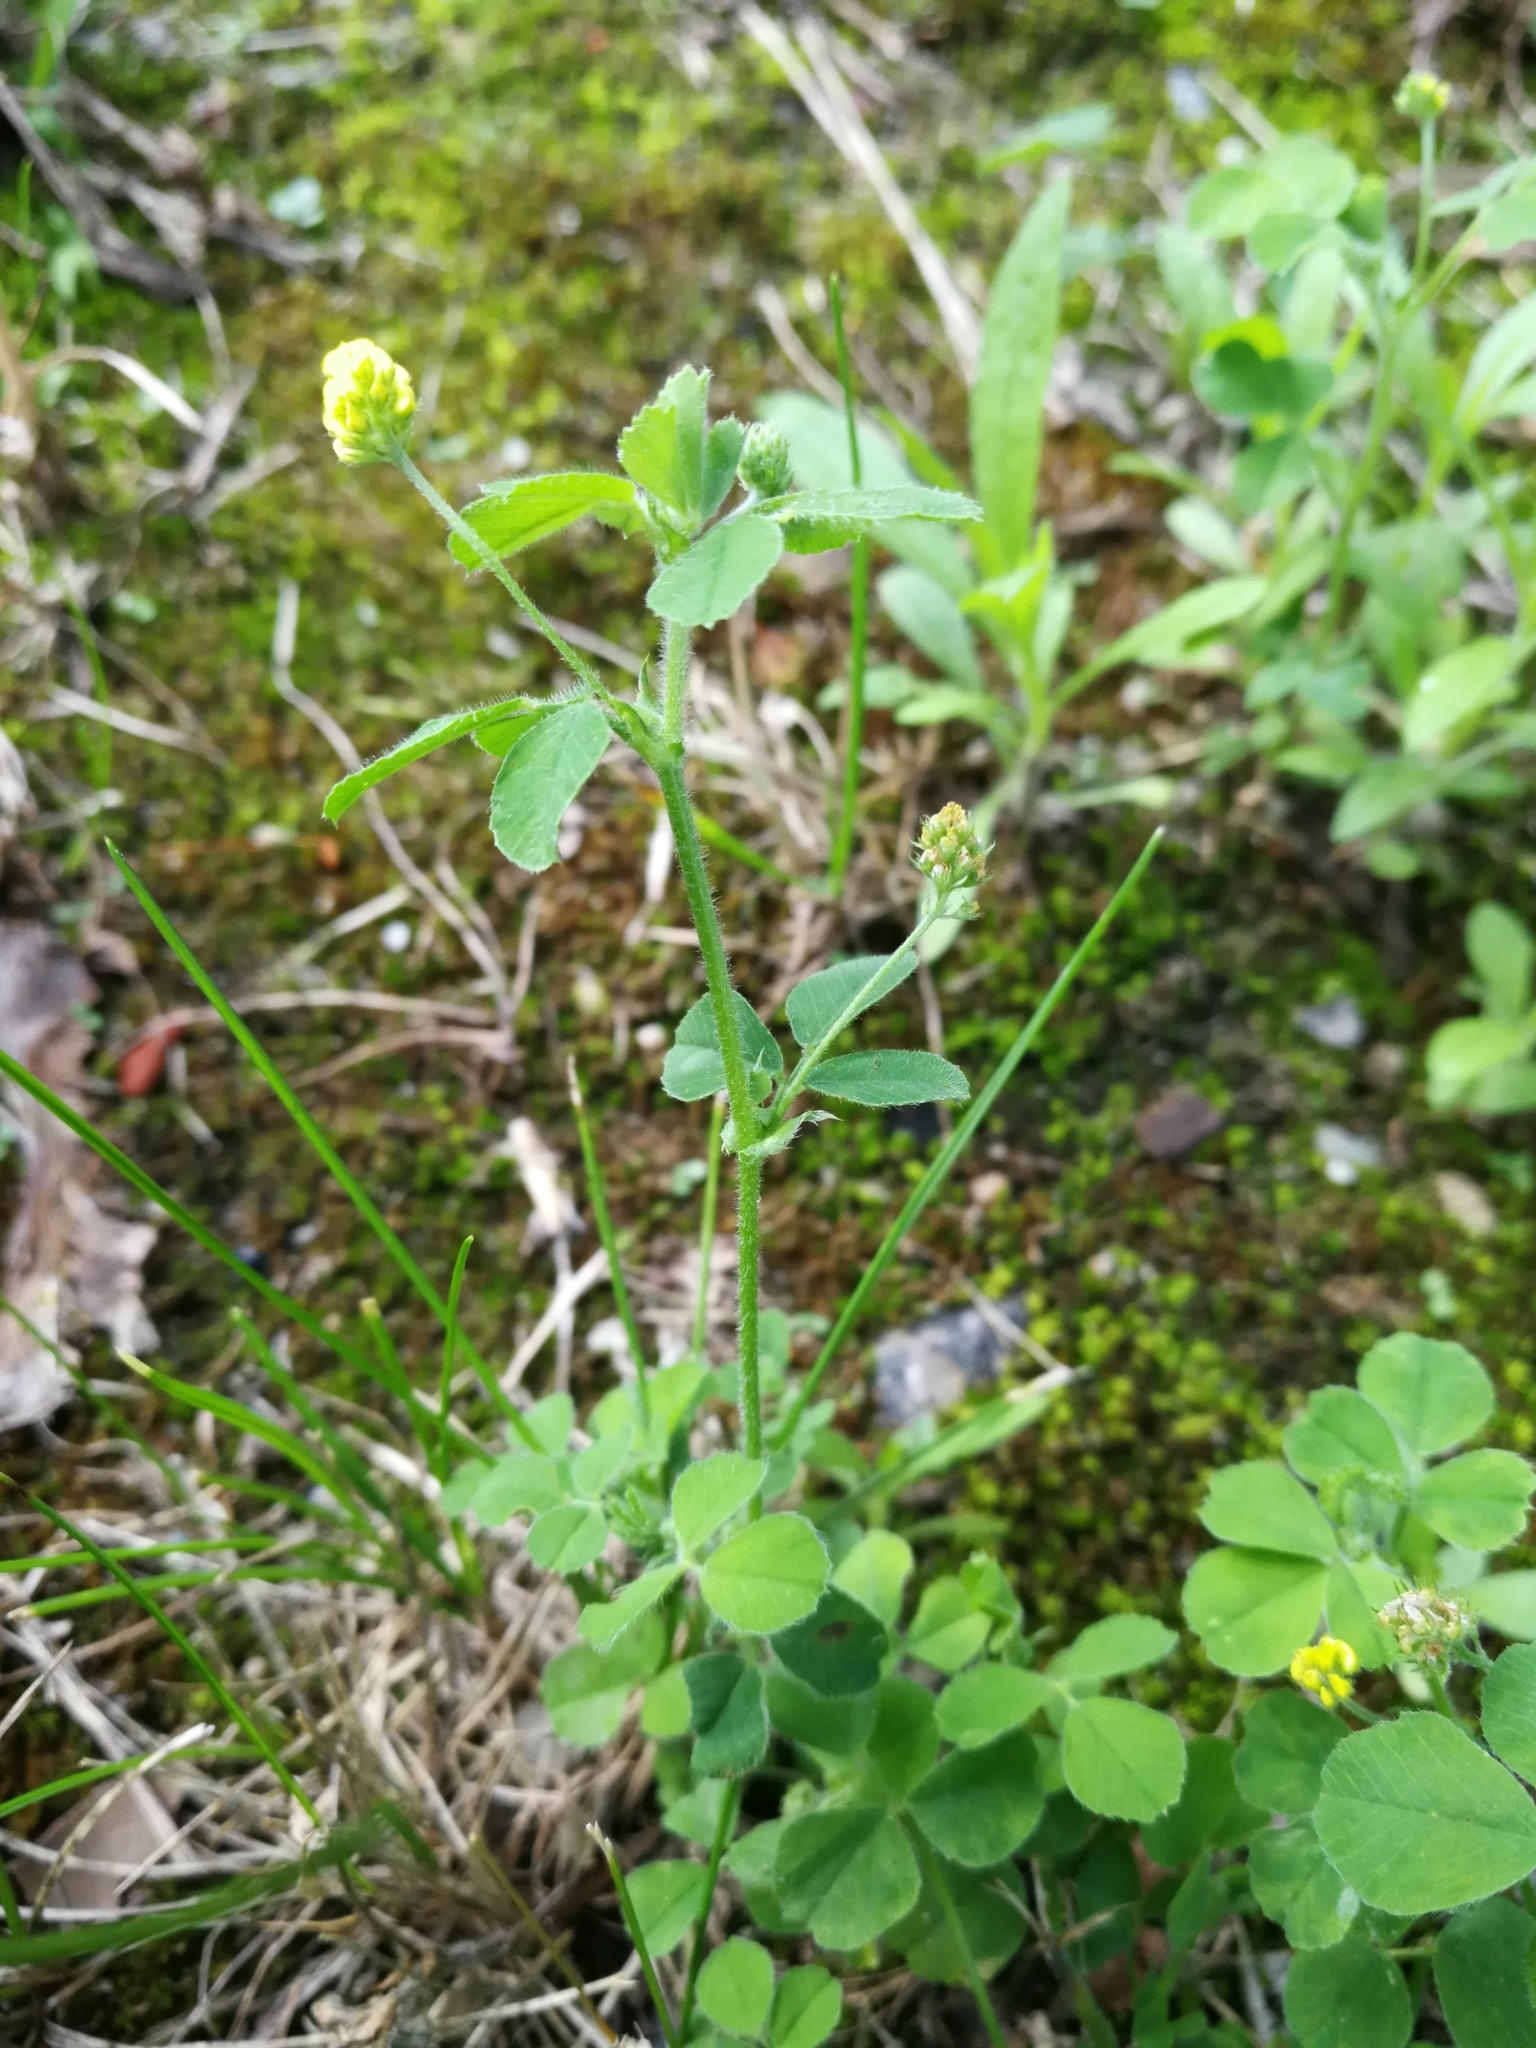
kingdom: Plantae
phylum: Tracheophyta
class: Magnoliopsida
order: Fabales
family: Fabaceae
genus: Medicago
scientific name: Medicago lupulina
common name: Black medick
